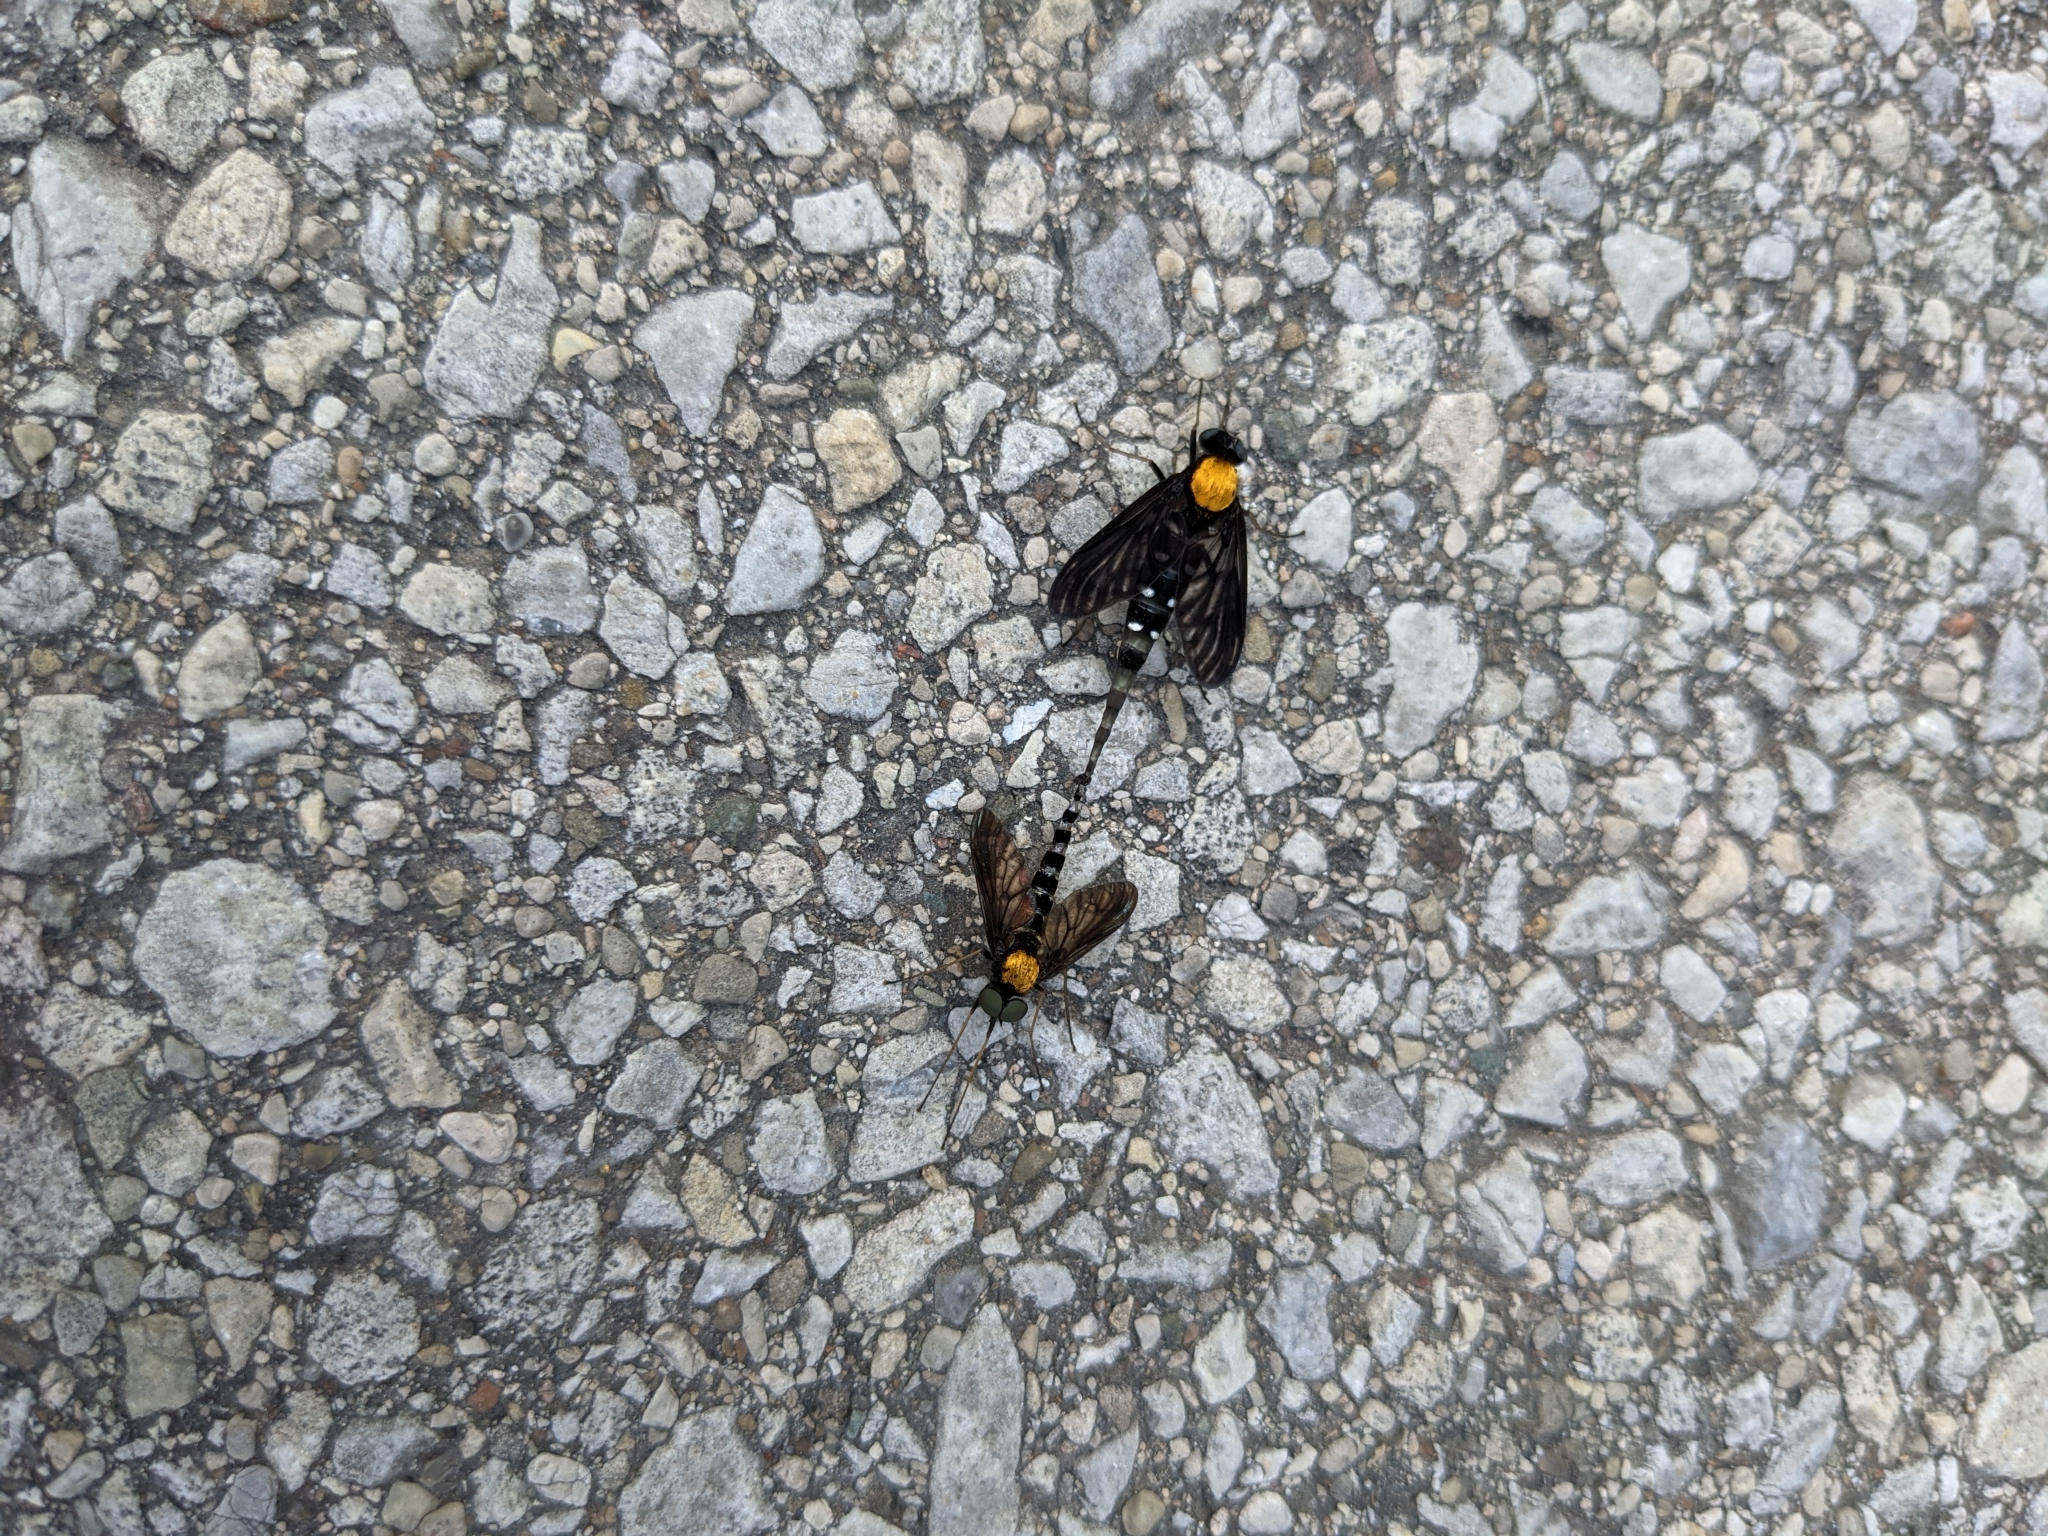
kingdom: Animalia
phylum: Arthropoda
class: Insecta
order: Diptera
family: Rhagionidae
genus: Chrysopilus
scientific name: Chrysopilus thoracicus
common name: Golden-backed snipe fly
